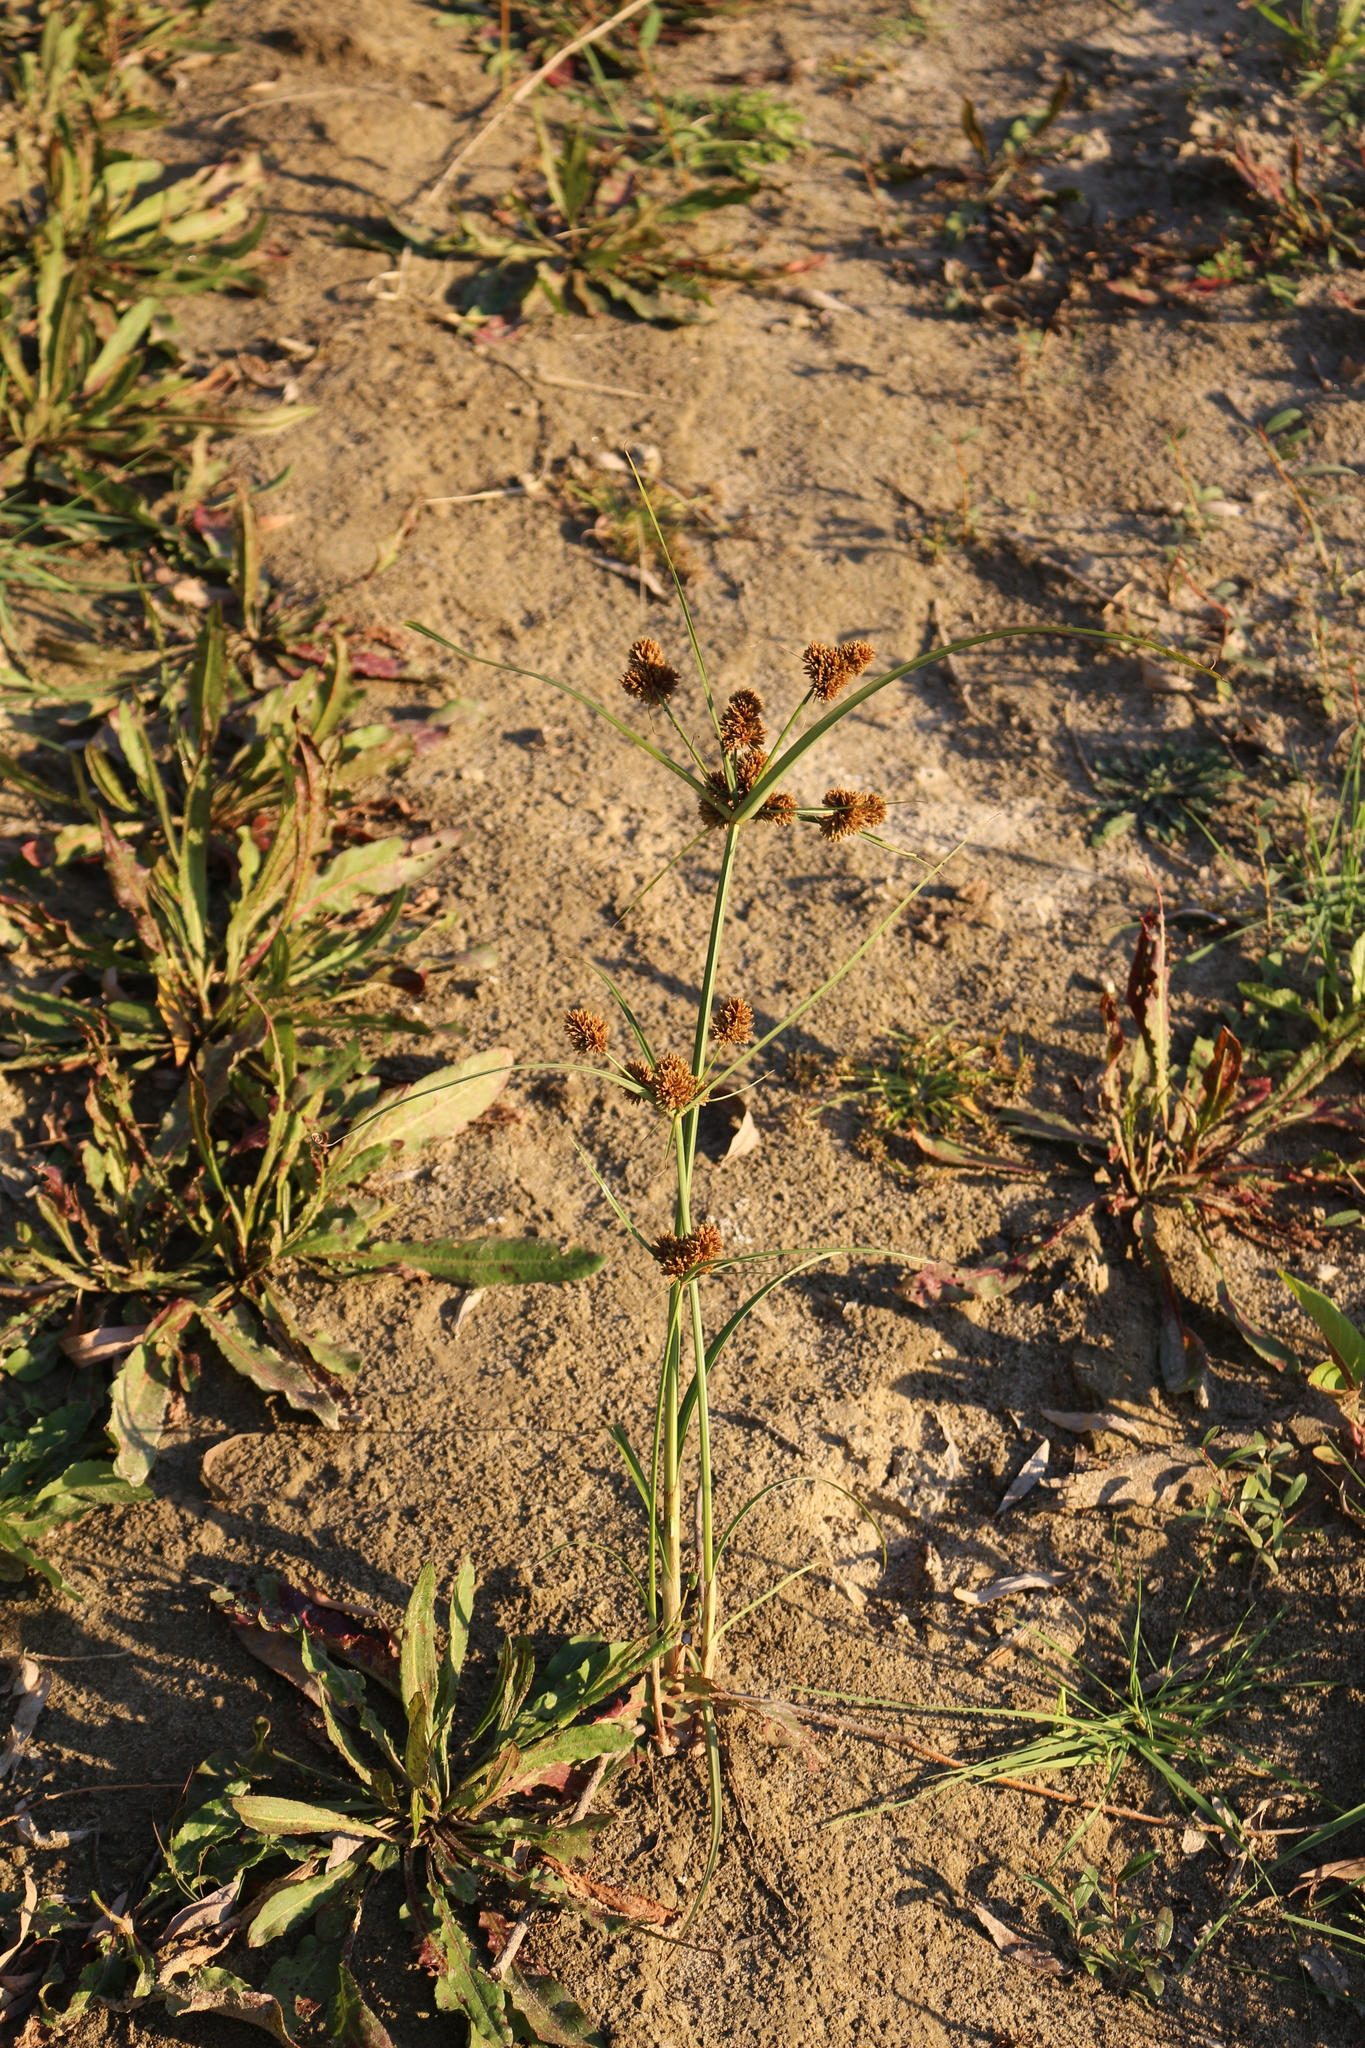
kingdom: Plantae
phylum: Tracheophyta
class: Liliopsida
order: Poales
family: Cyperaceae
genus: Cyperus
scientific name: Cyperus glomeratus
